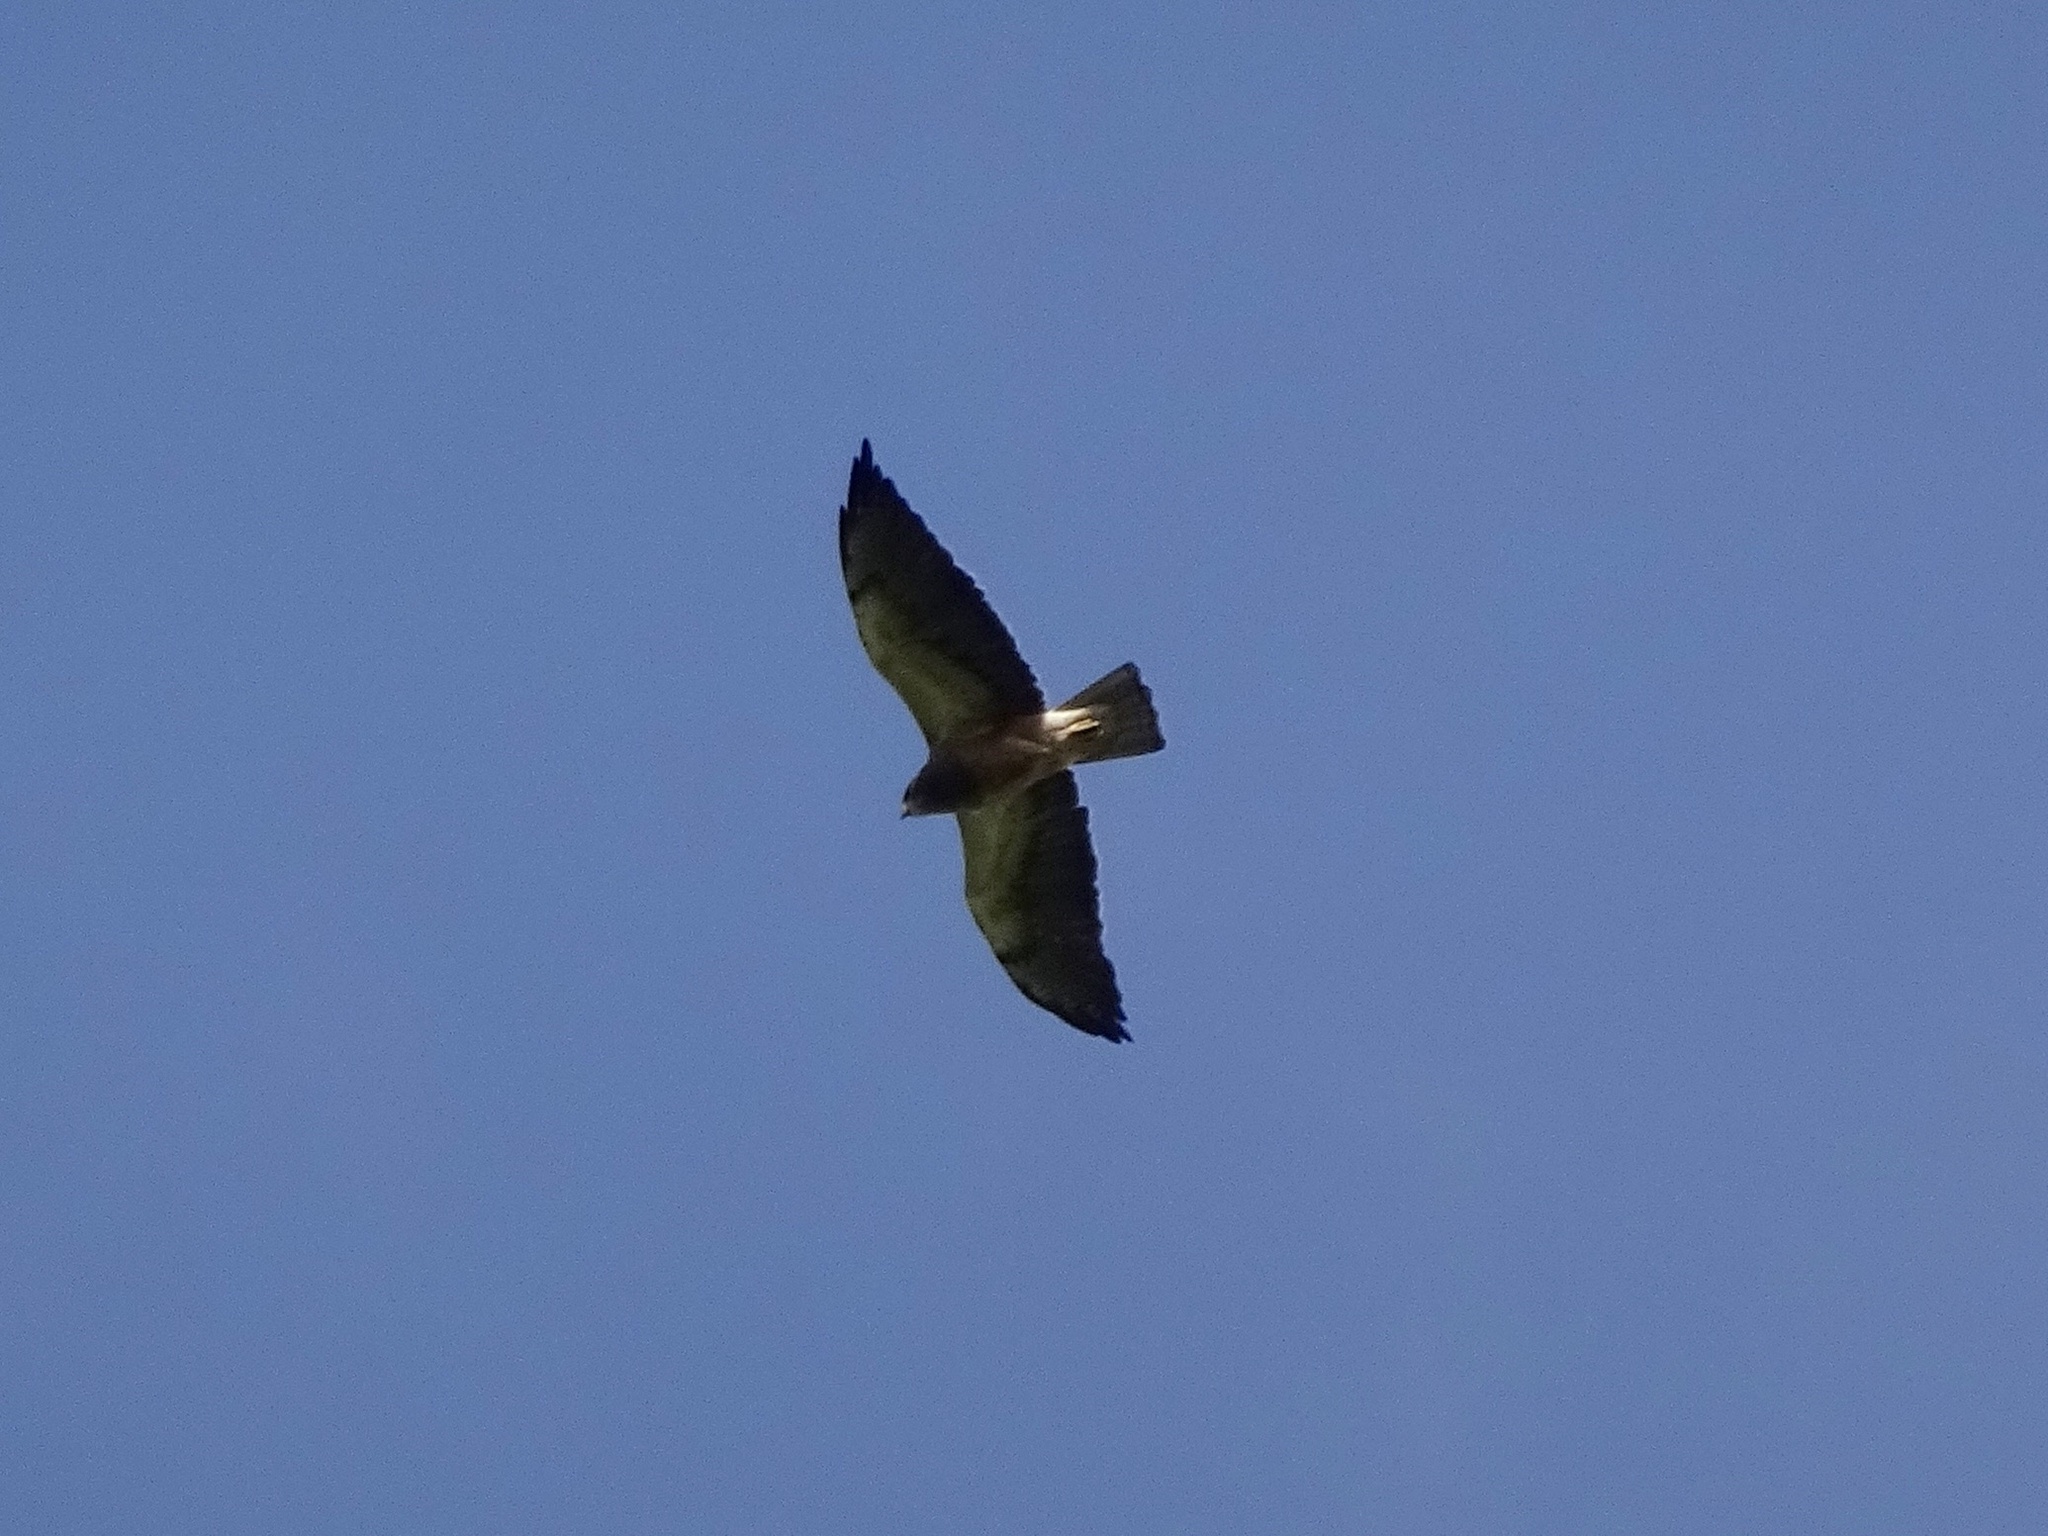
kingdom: Animalia
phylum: Chordata
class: Aves
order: Accipitriformes
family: Accipitridae
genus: Buteo
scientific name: Buteo swainsoni
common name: Swainson's hawk
